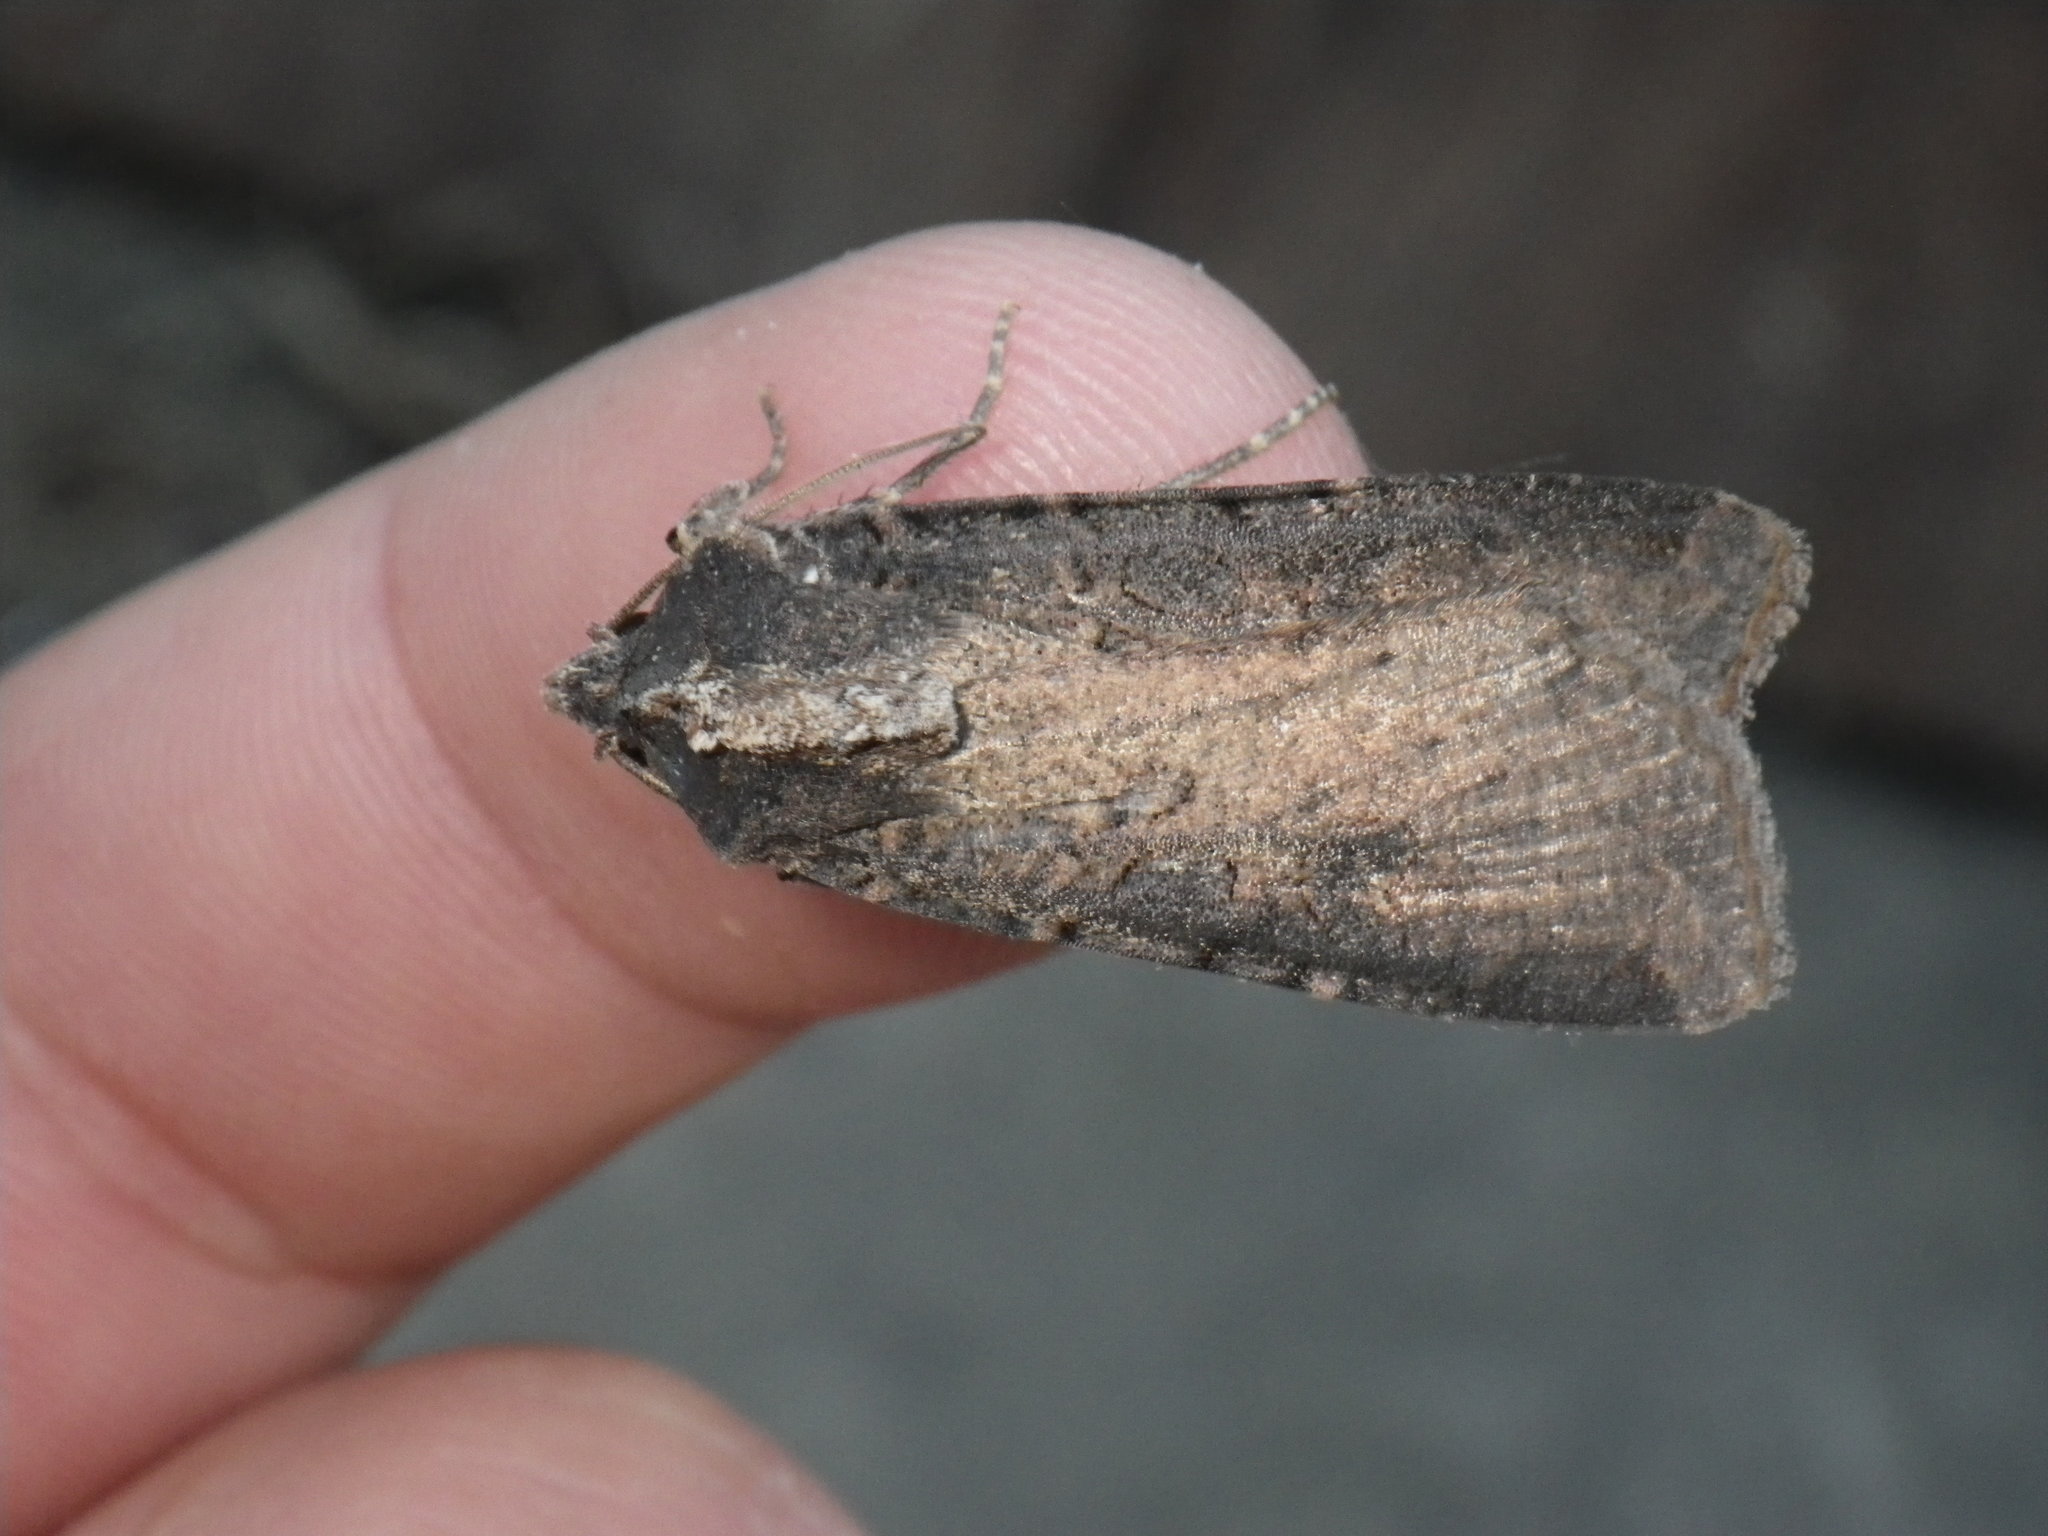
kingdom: Animalia
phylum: Arthropoda
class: Insecta
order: Lepidoptera
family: Noctuidae
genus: Peridroma
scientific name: Peridroma saucia
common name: Pearly underwing
